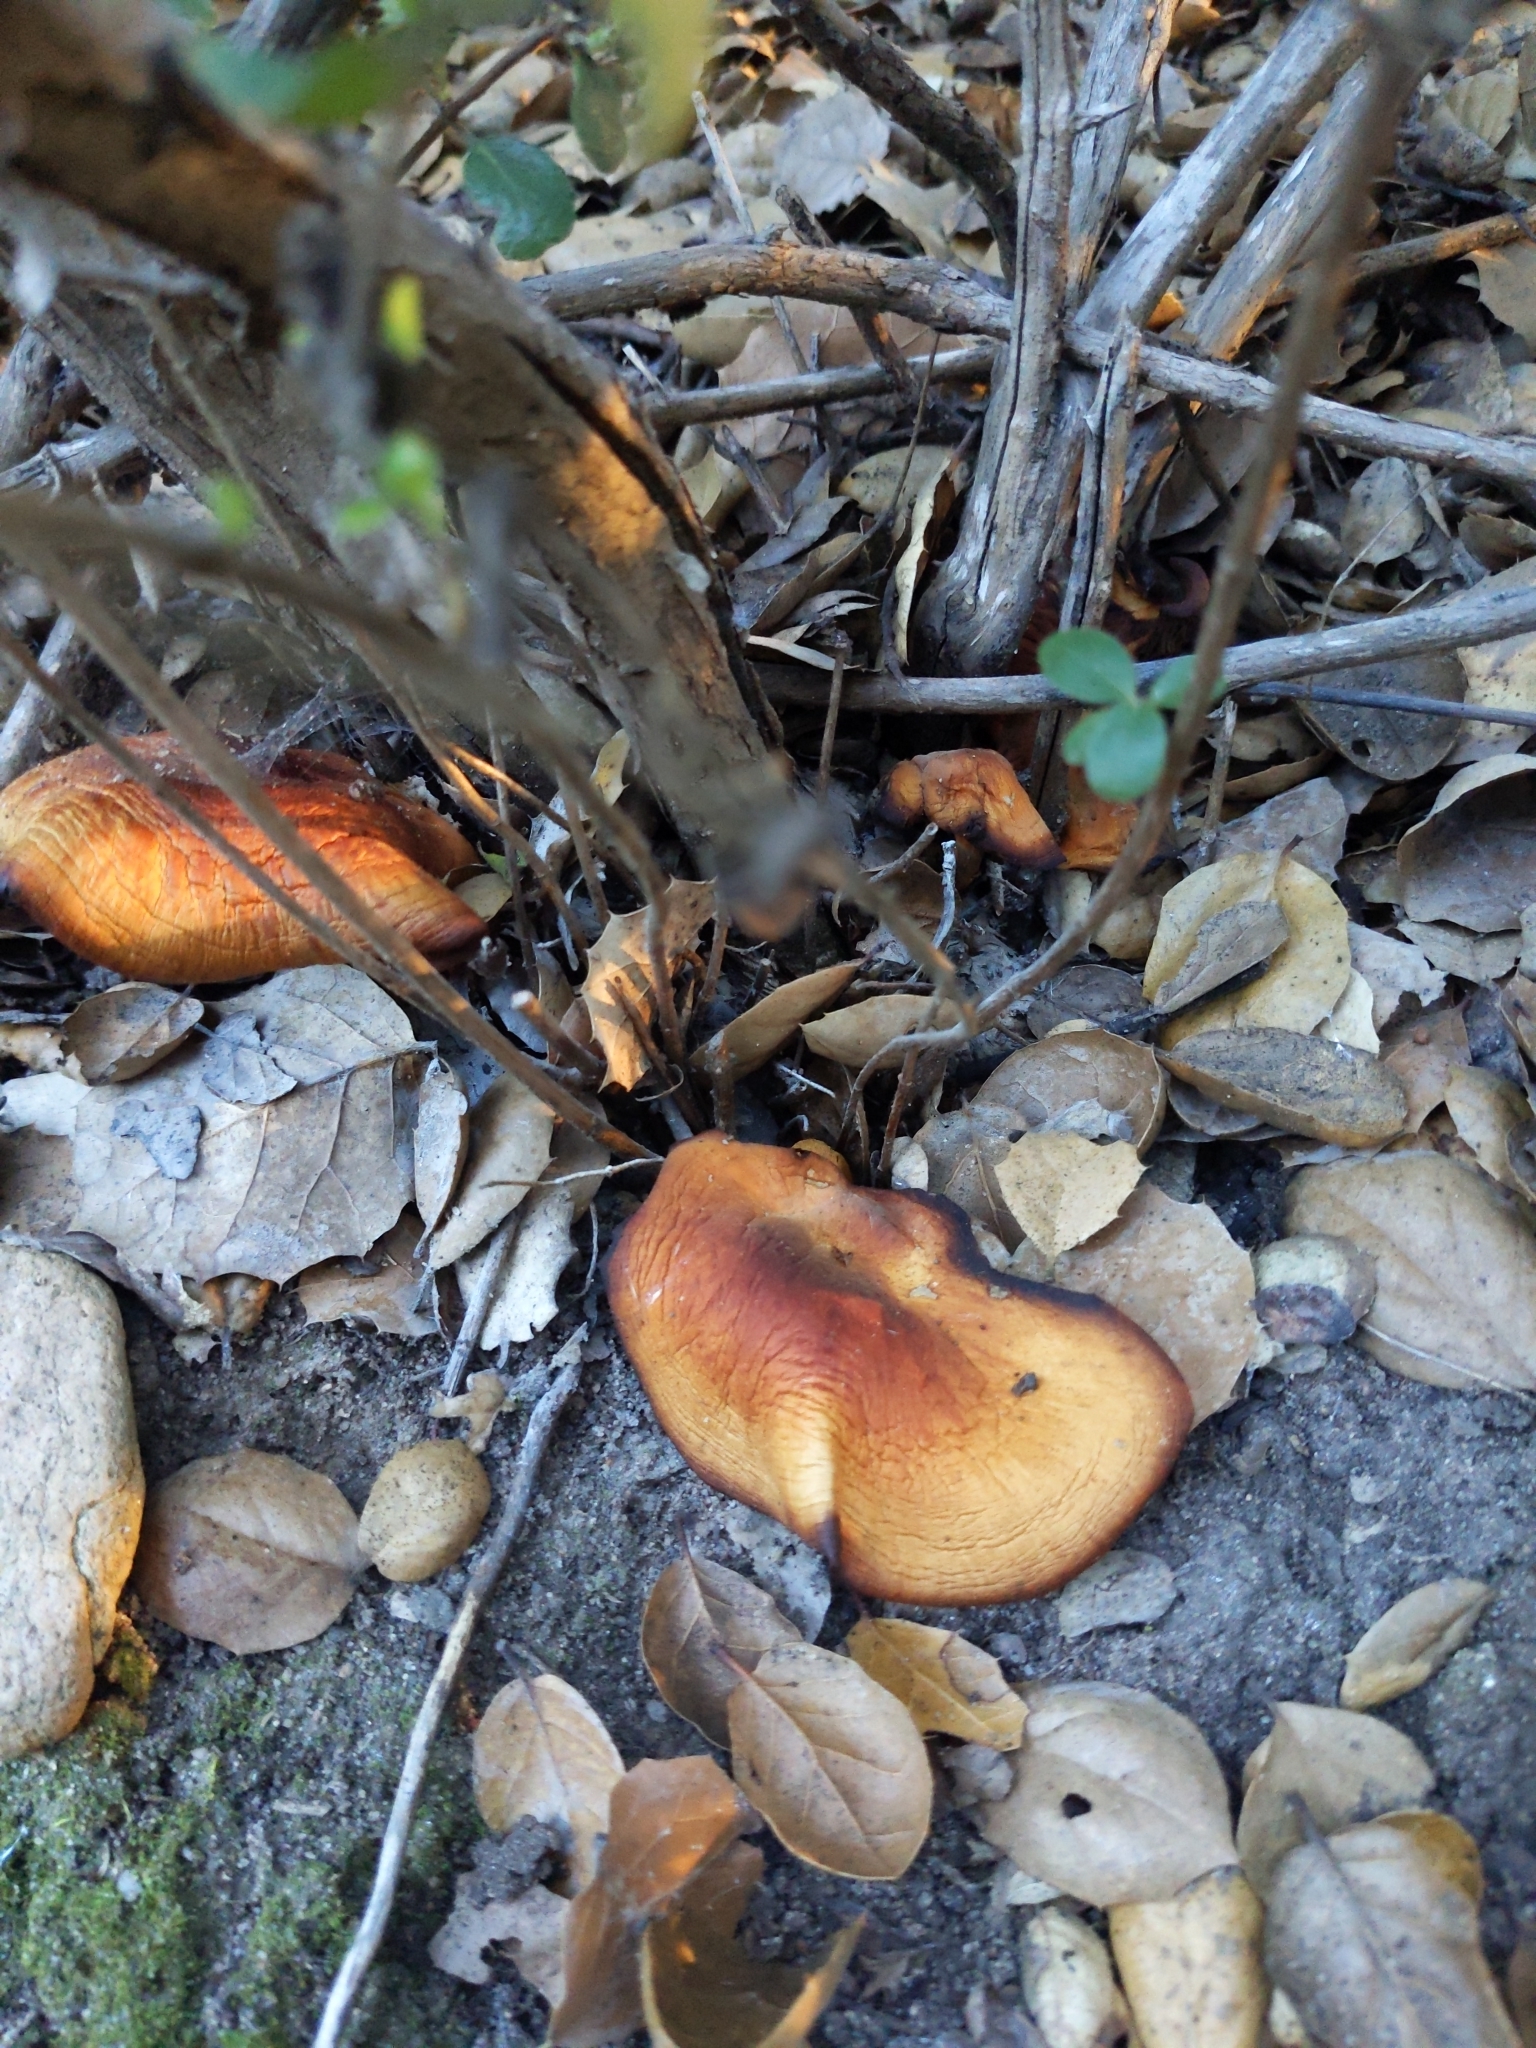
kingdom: Fungi
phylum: Basidiomycota
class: Agaricomycetes
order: Agaricales
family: Omphalotaceae
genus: Omphalotus
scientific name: Omphalotus olivascens
